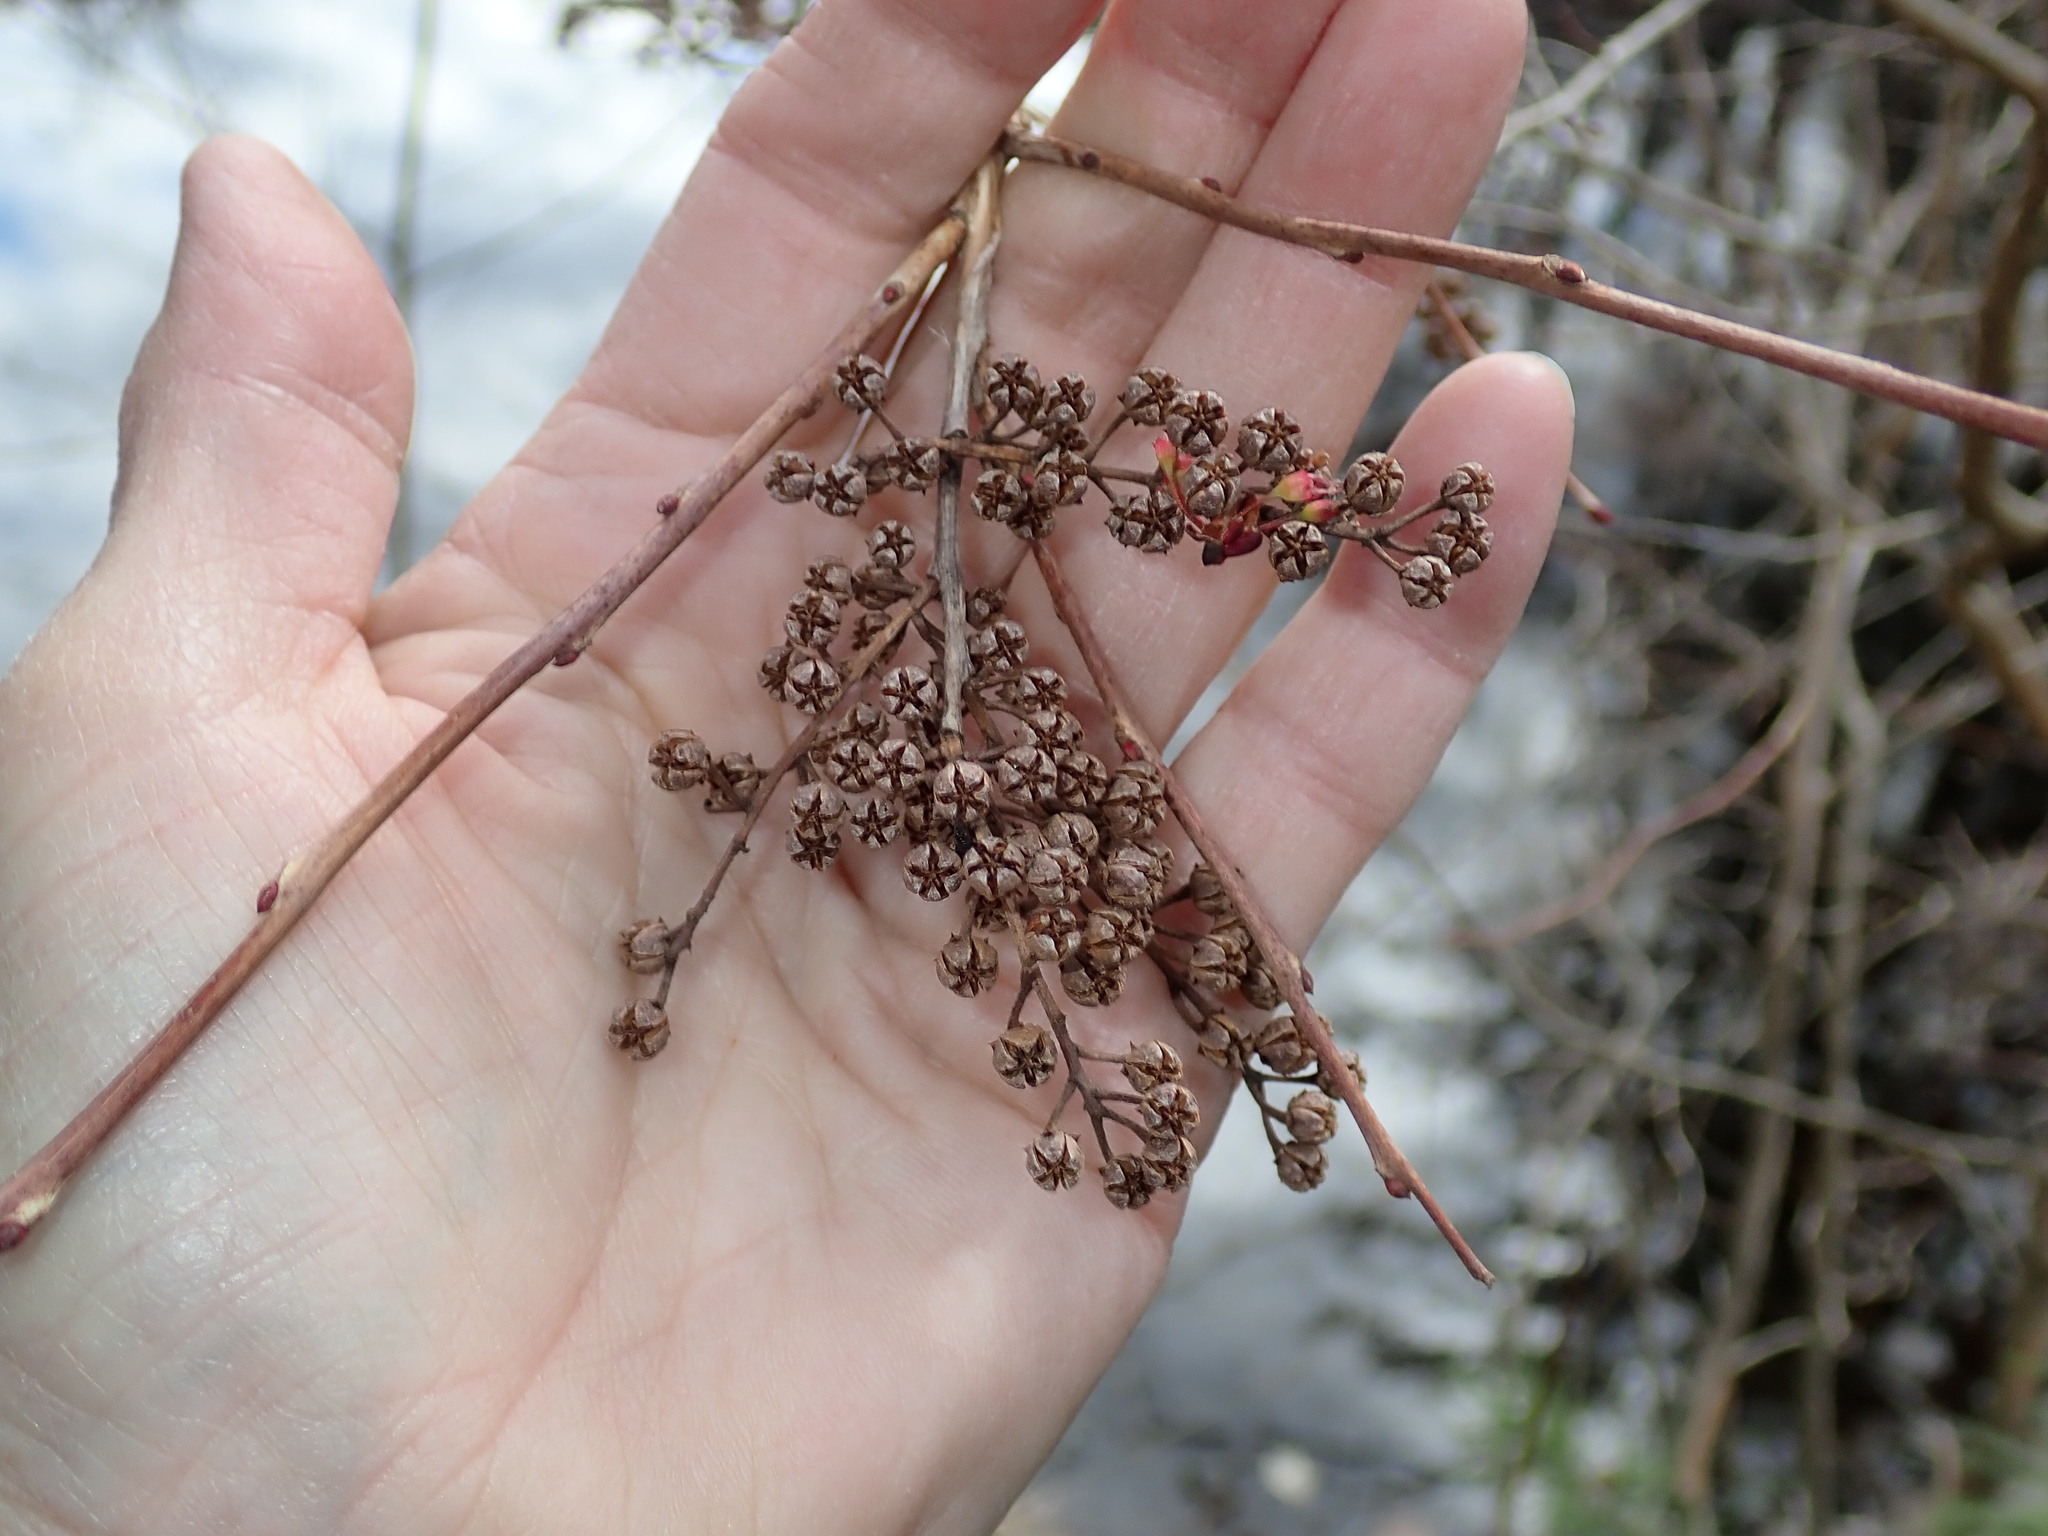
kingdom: Plantae
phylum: Tracheophyta
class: Magnoliopsida
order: Ericales
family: Ericaceae
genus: Lyonia
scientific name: Lyonia ligustrina
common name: Maleberry
